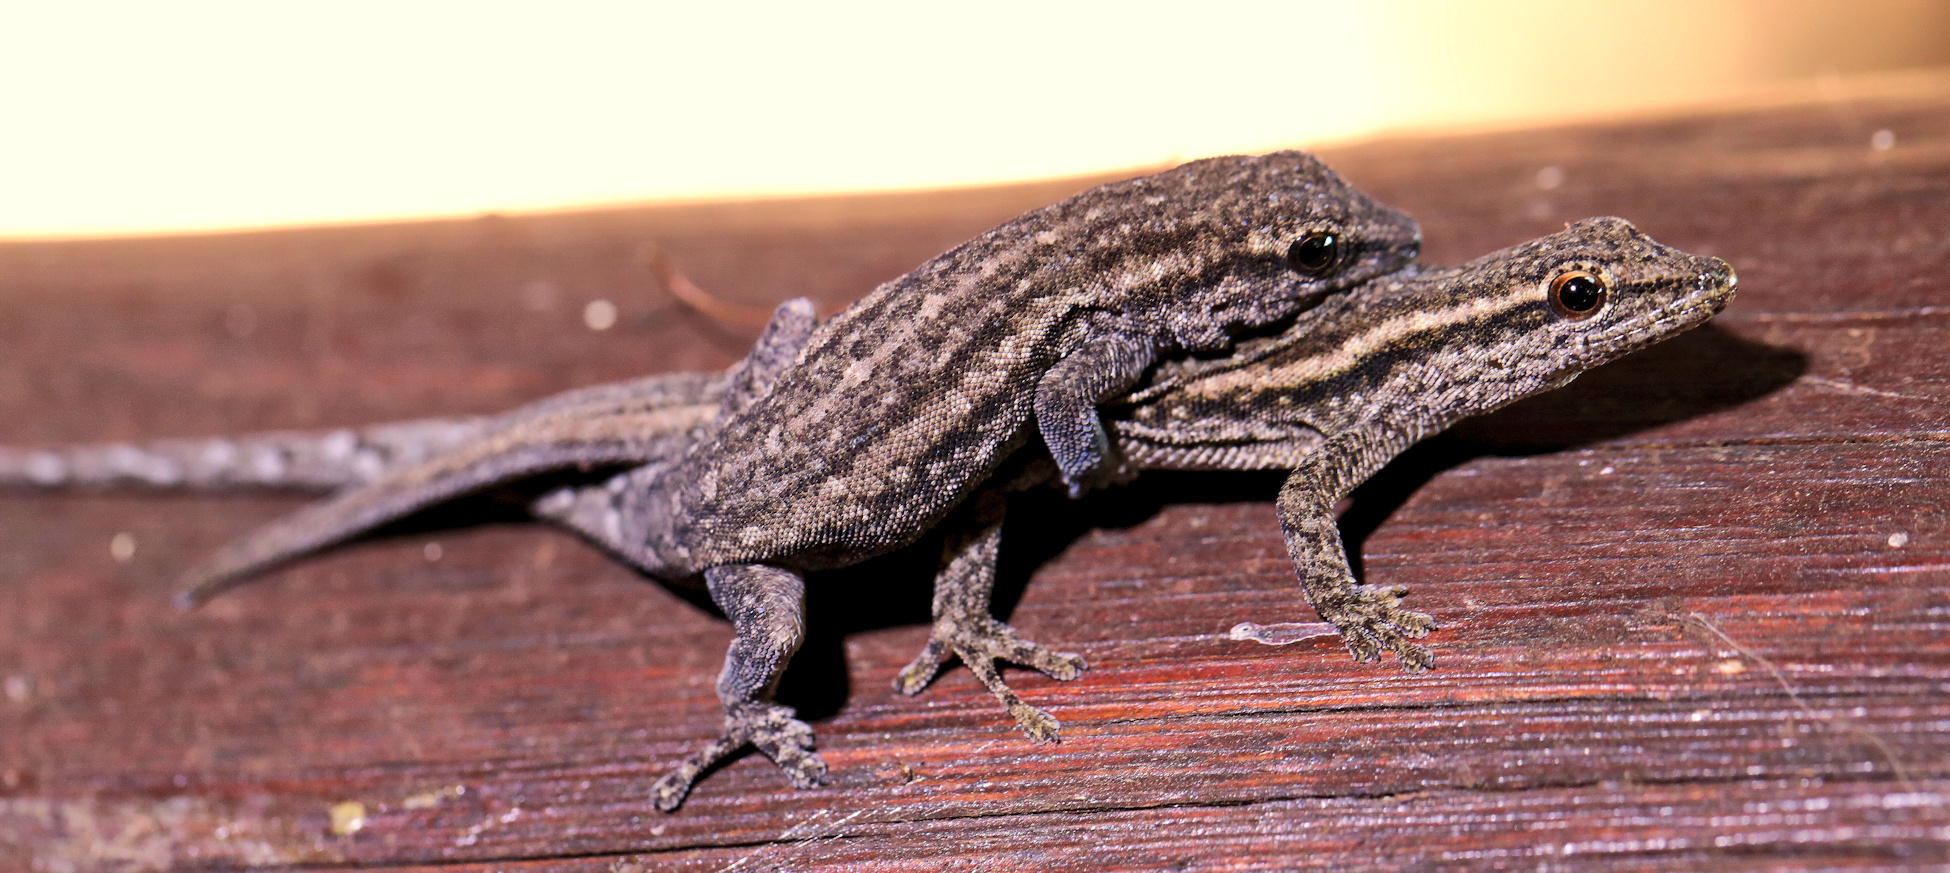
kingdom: Animalia
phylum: Chordata
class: Squamata
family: Gekkonidae
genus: Lygodactylus
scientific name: Lygodactylus capensis
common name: Cape dwarf gecko
